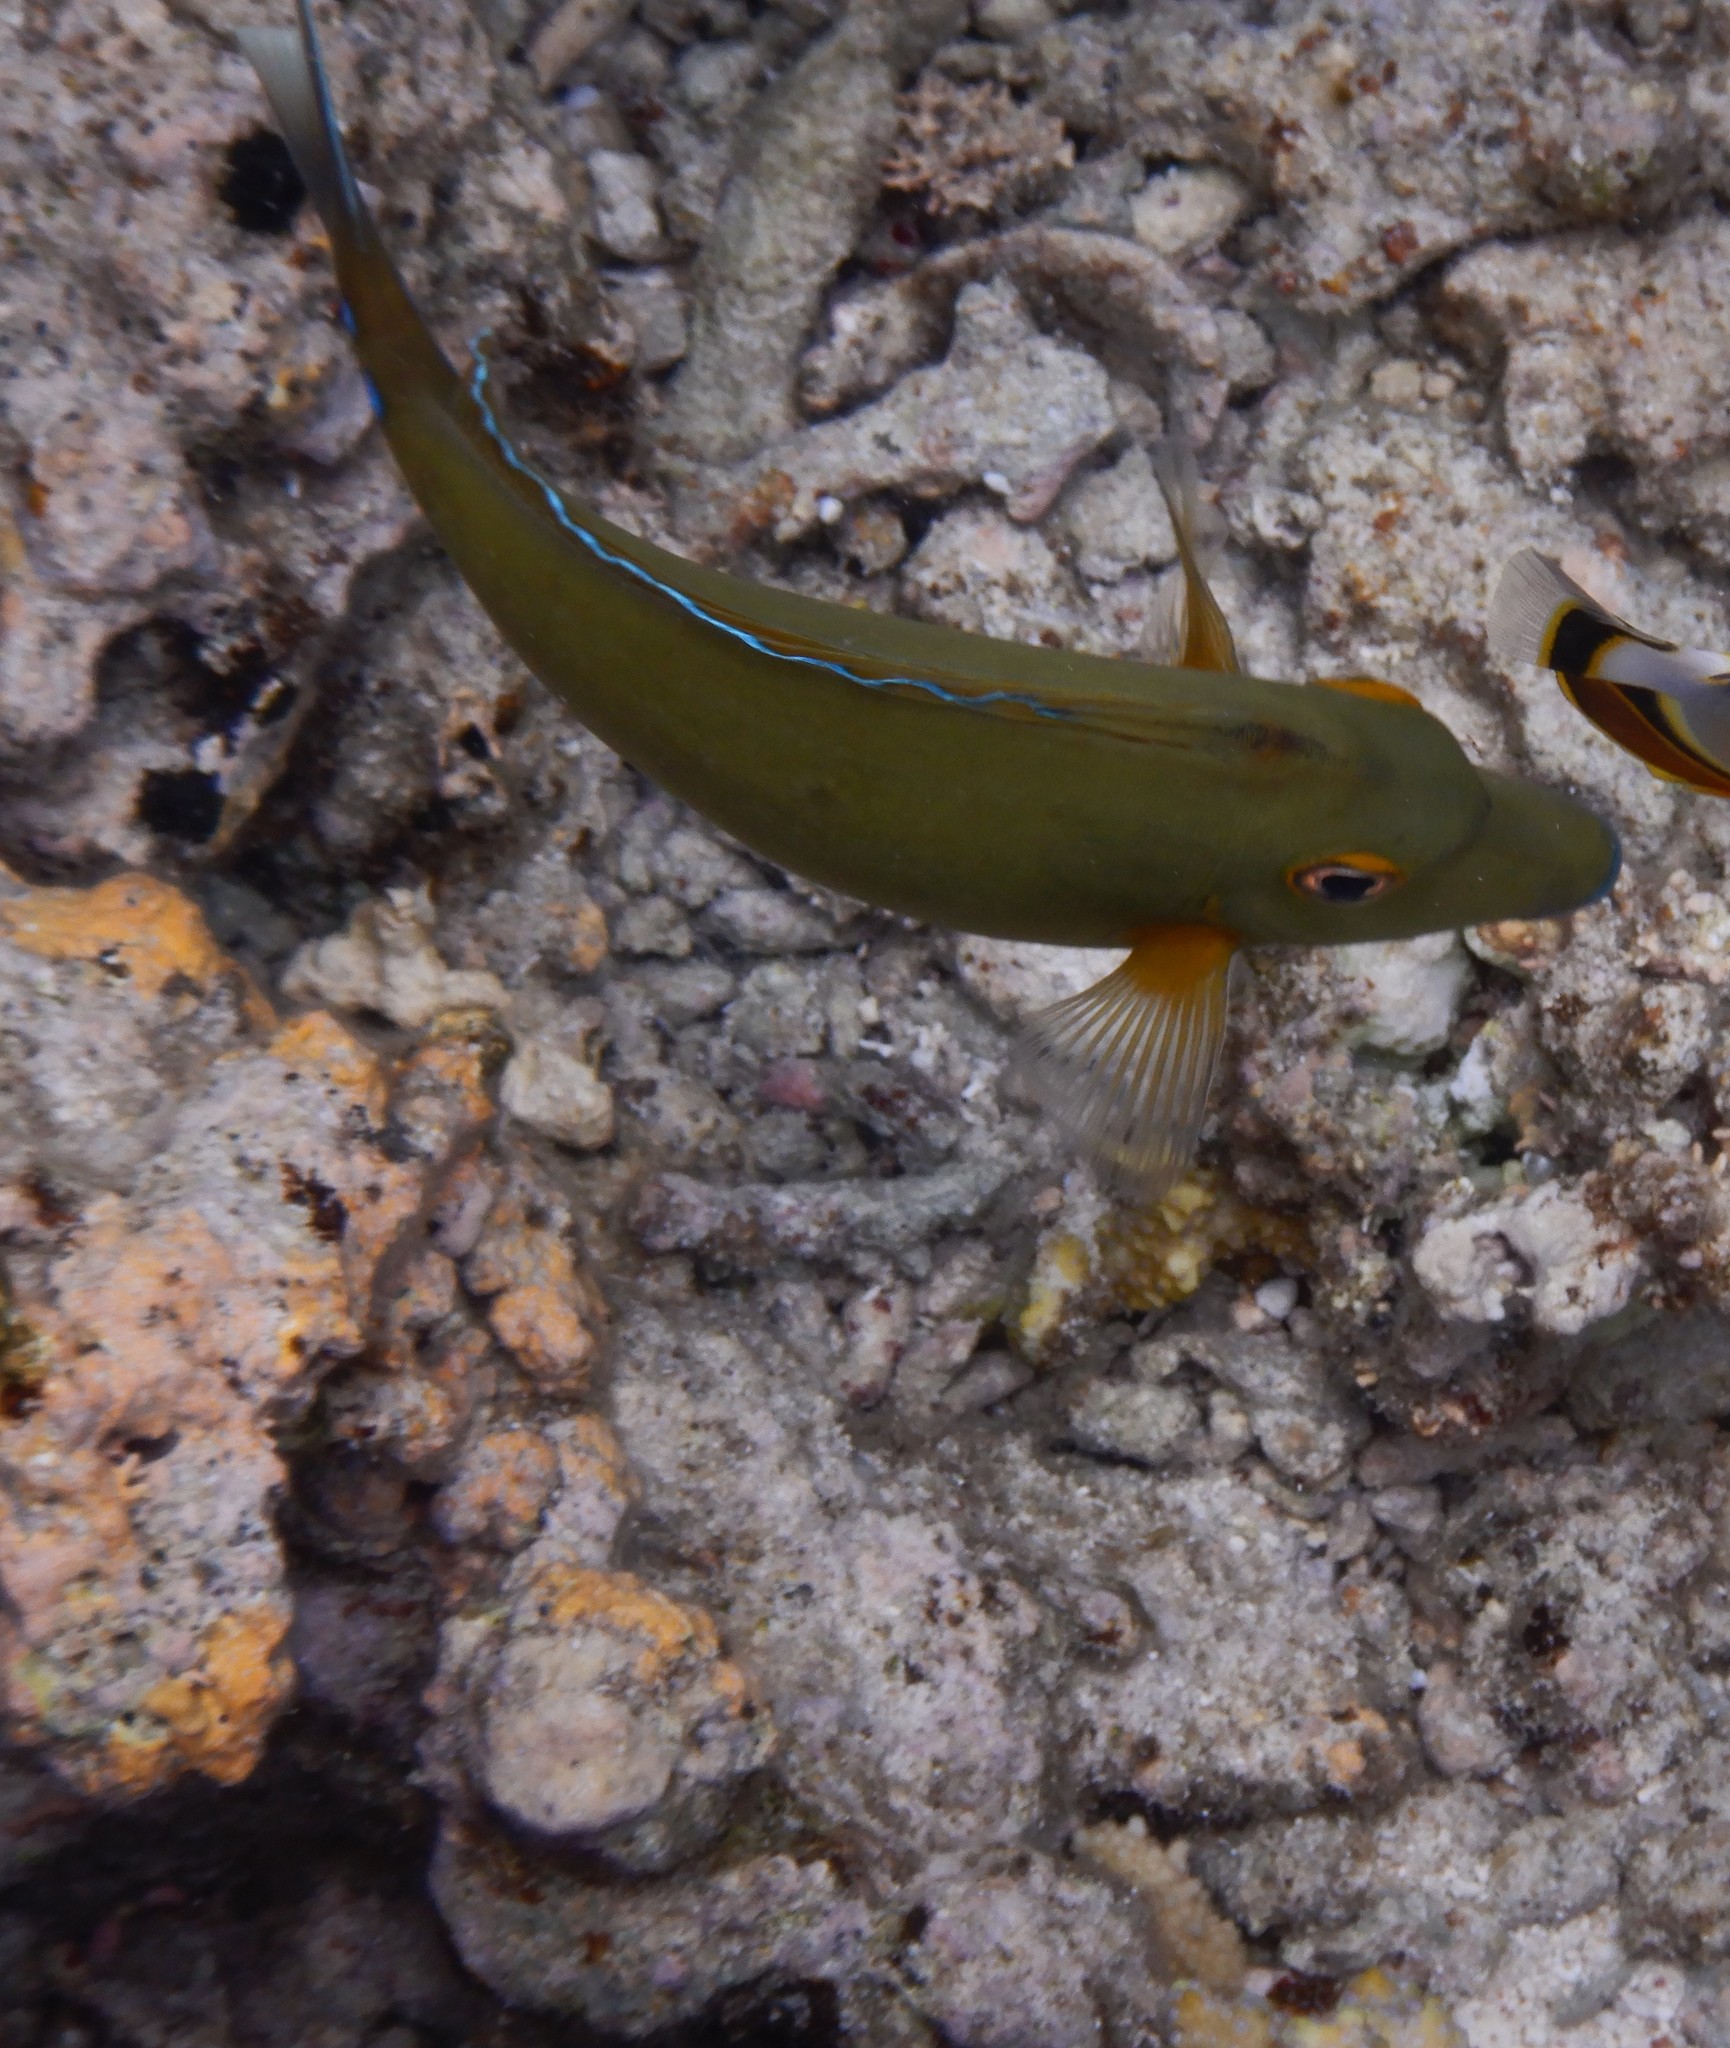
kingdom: Animalia
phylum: Chordata
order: Perciformes
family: Acanthuridae
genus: Naso
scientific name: Naso unicornis
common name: Bluespine unicornfish
